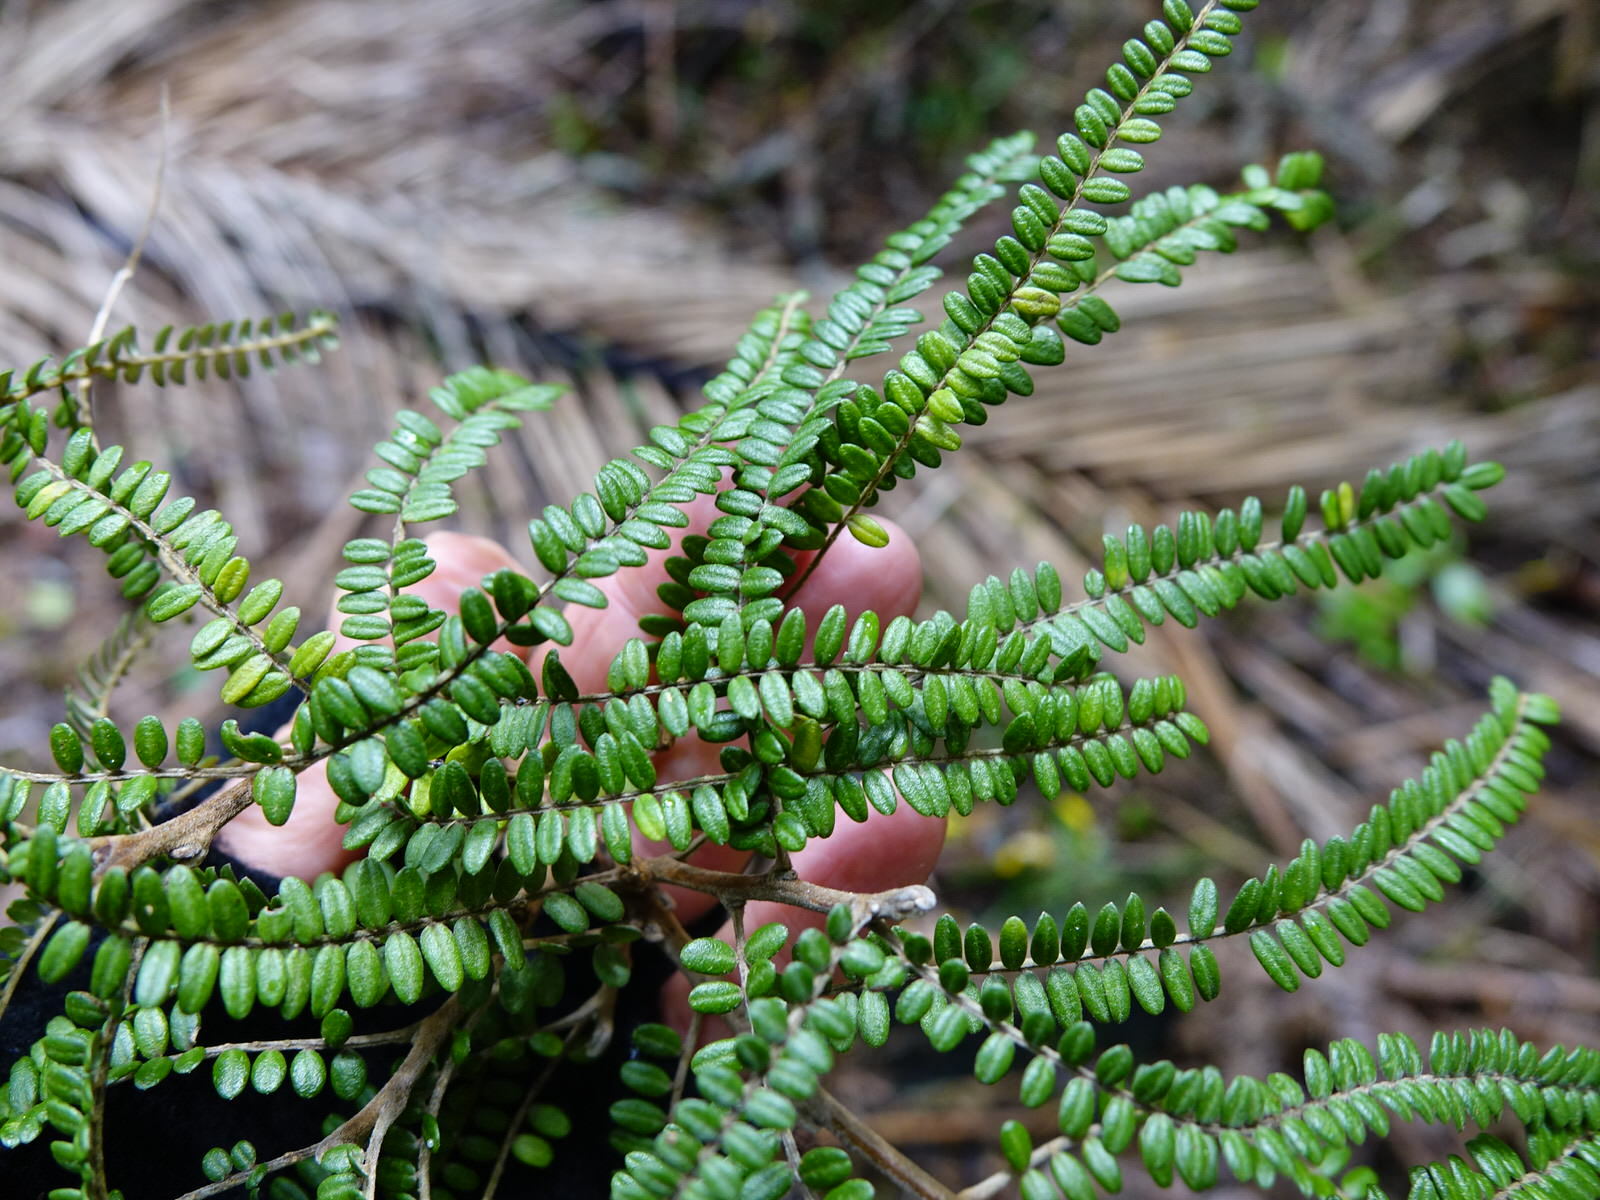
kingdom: Plantae
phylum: Tracheophyta
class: Magnoliopsida
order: Fabales
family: Fabaceae
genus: Sophora
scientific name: Sophora fulvida
